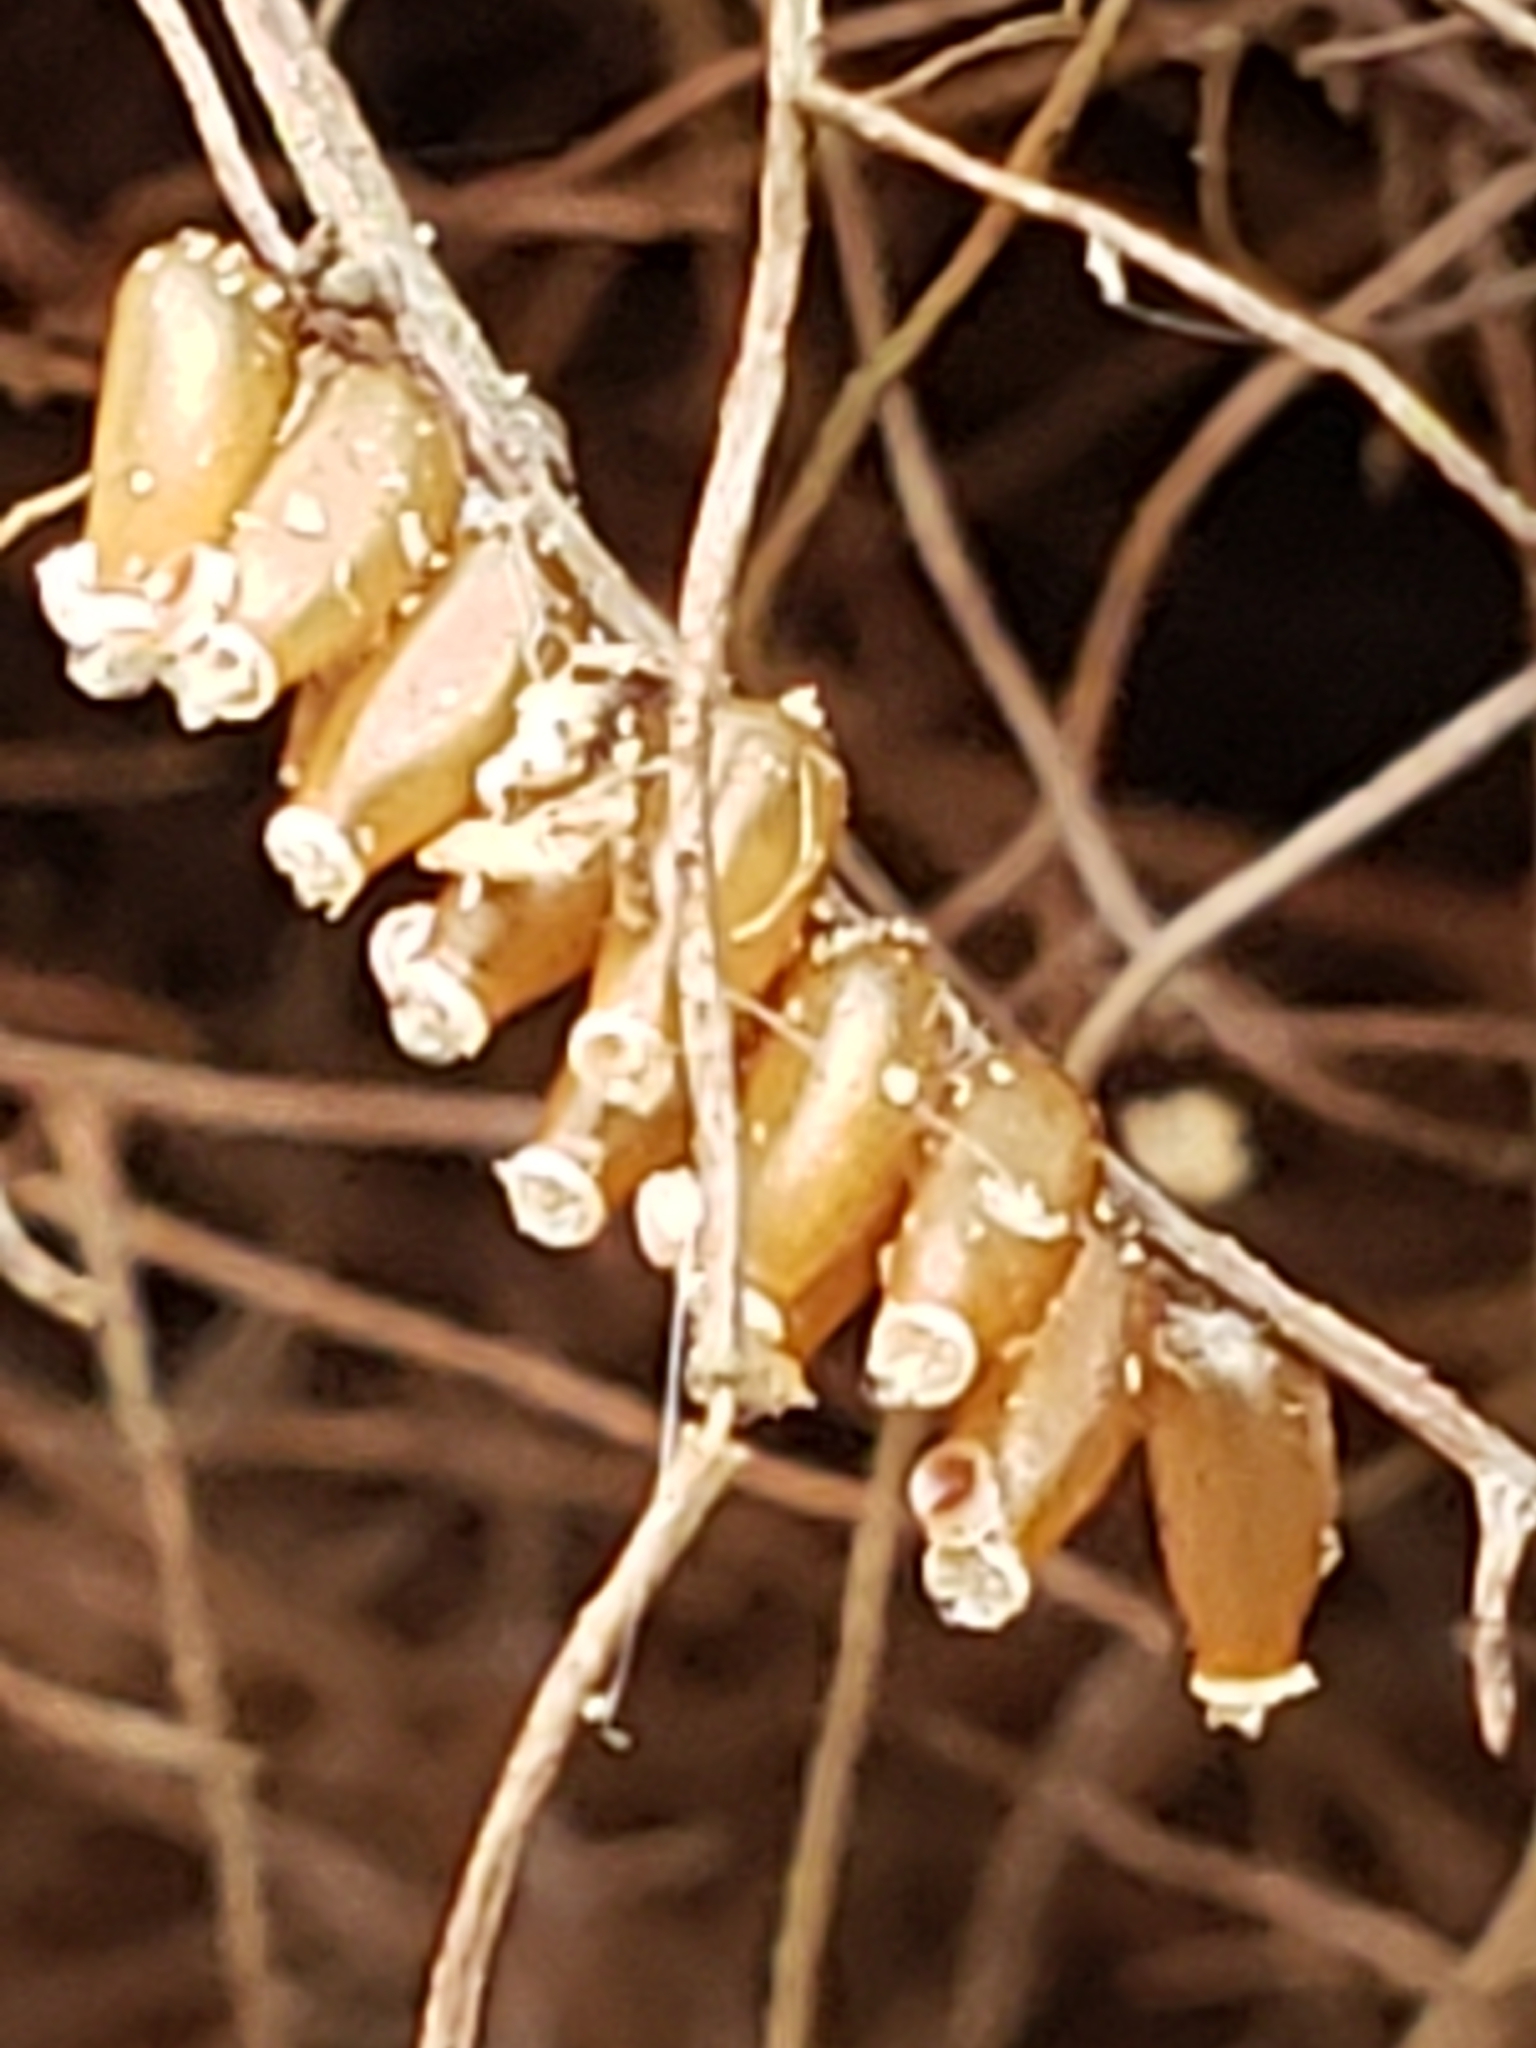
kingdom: Plantae
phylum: Tracheophyta
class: Liliopsida
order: Dioscoreales
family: Dioscoreaceae
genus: Dioscorea
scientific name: Dioscorea villosa
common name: Wild yam
